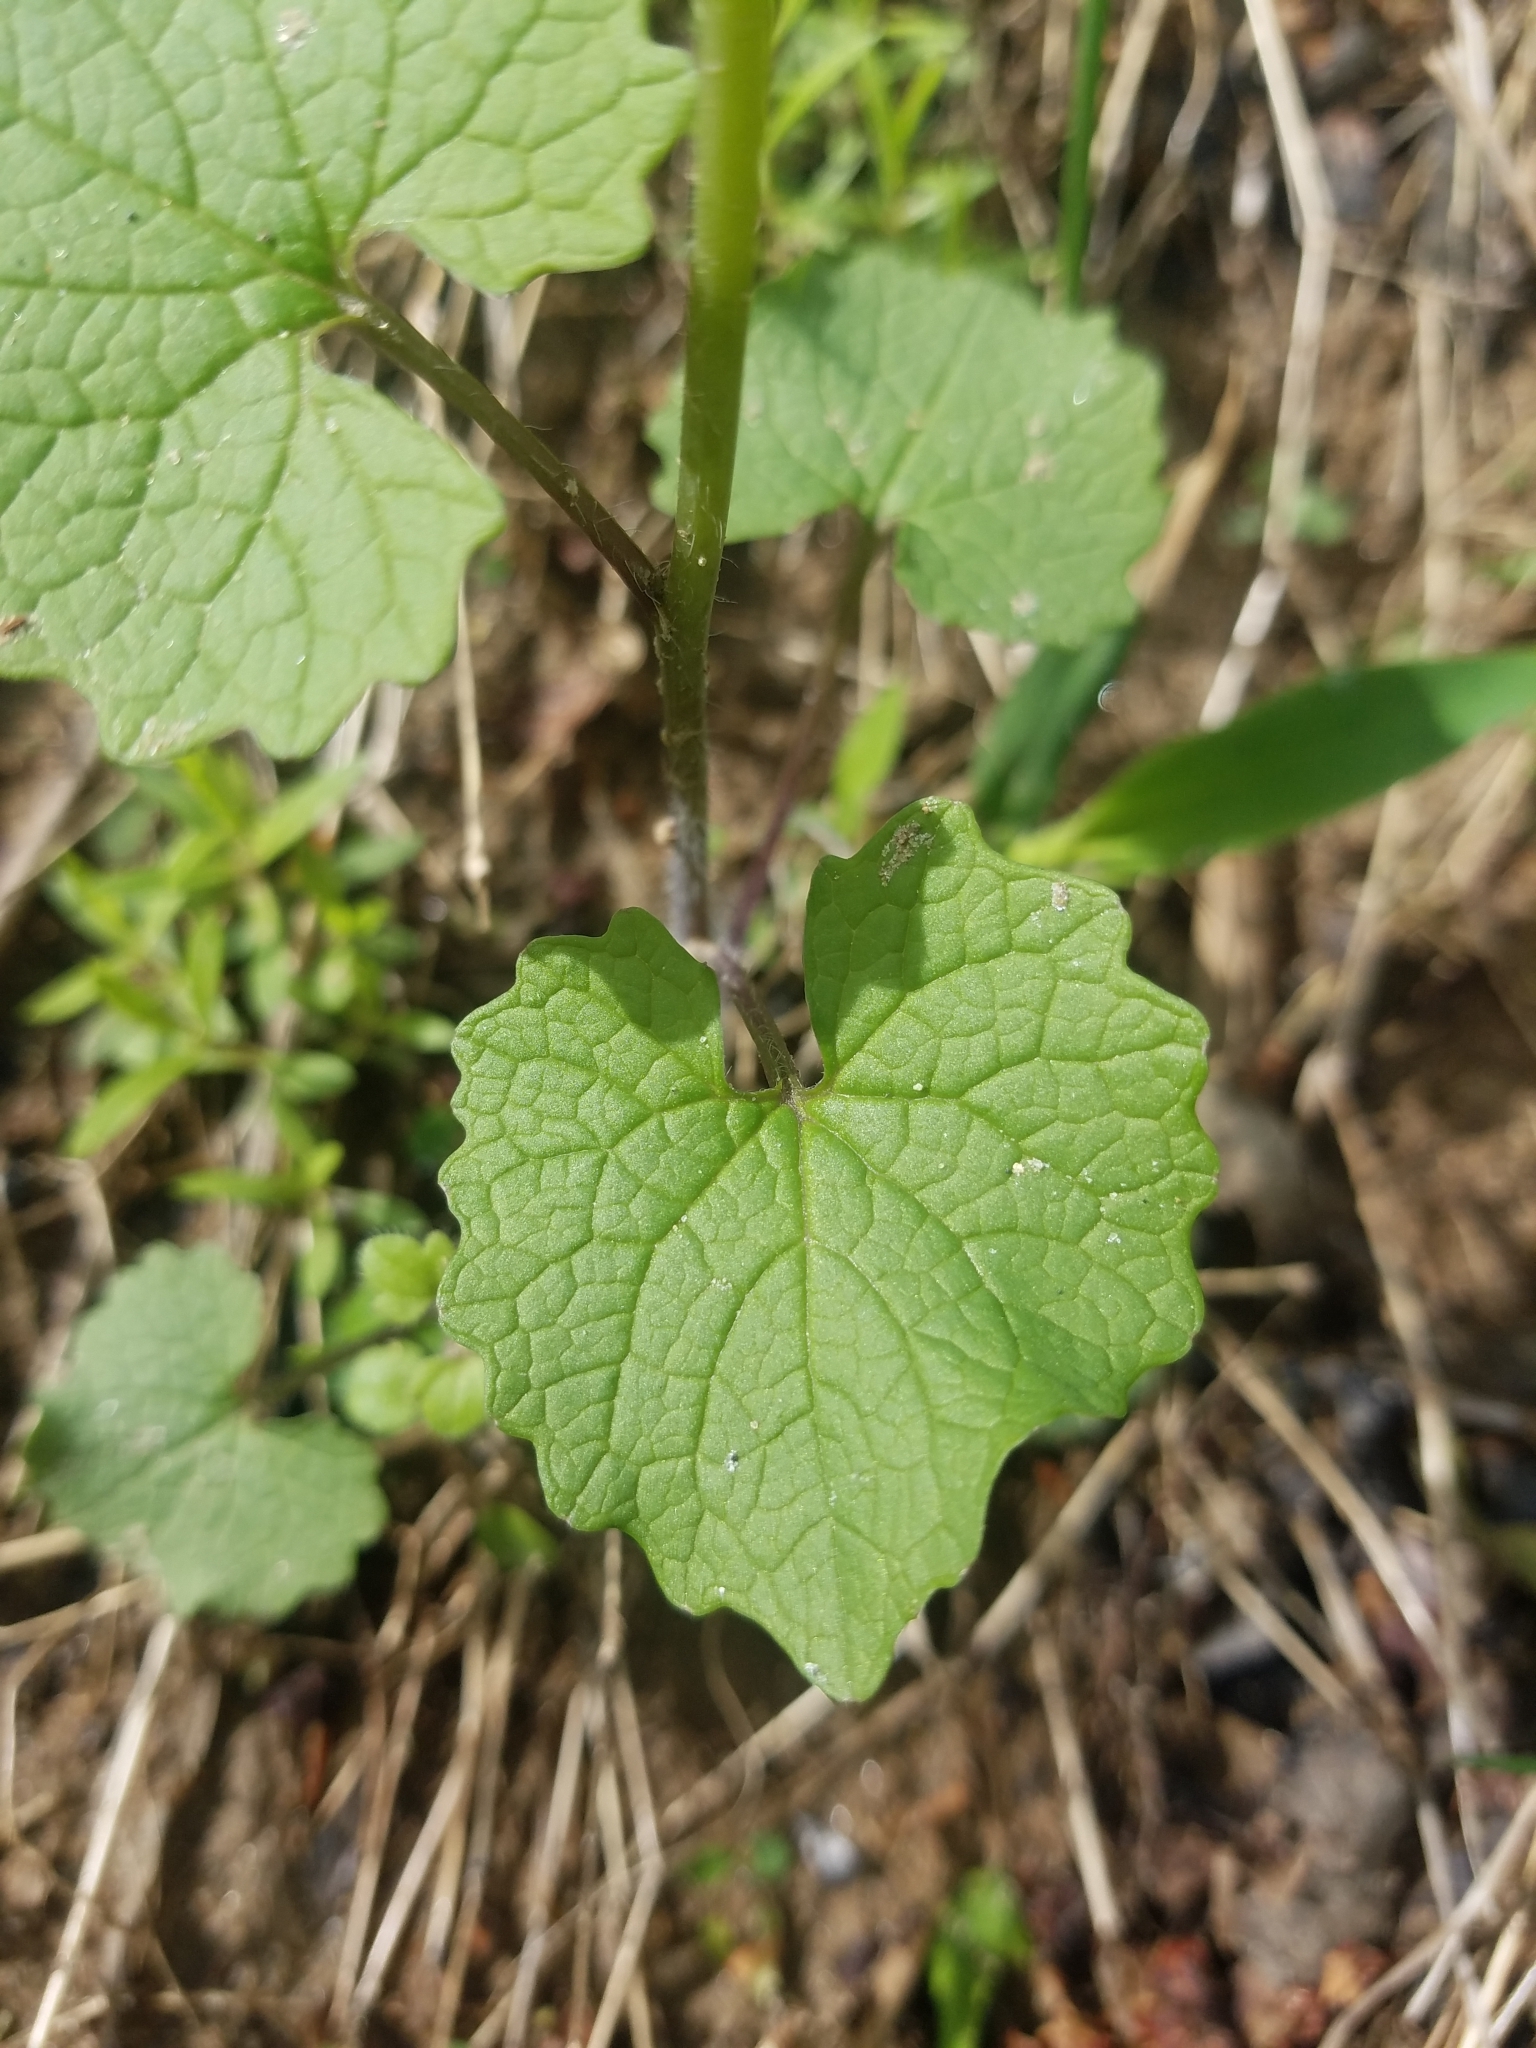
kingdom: Plantae
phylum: Tracheophyta
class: Magnoliopsida
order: Brassicales
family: Brassicaceae
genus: Alliaria
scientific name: Alliaria petiolata
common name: Garlic mustard
